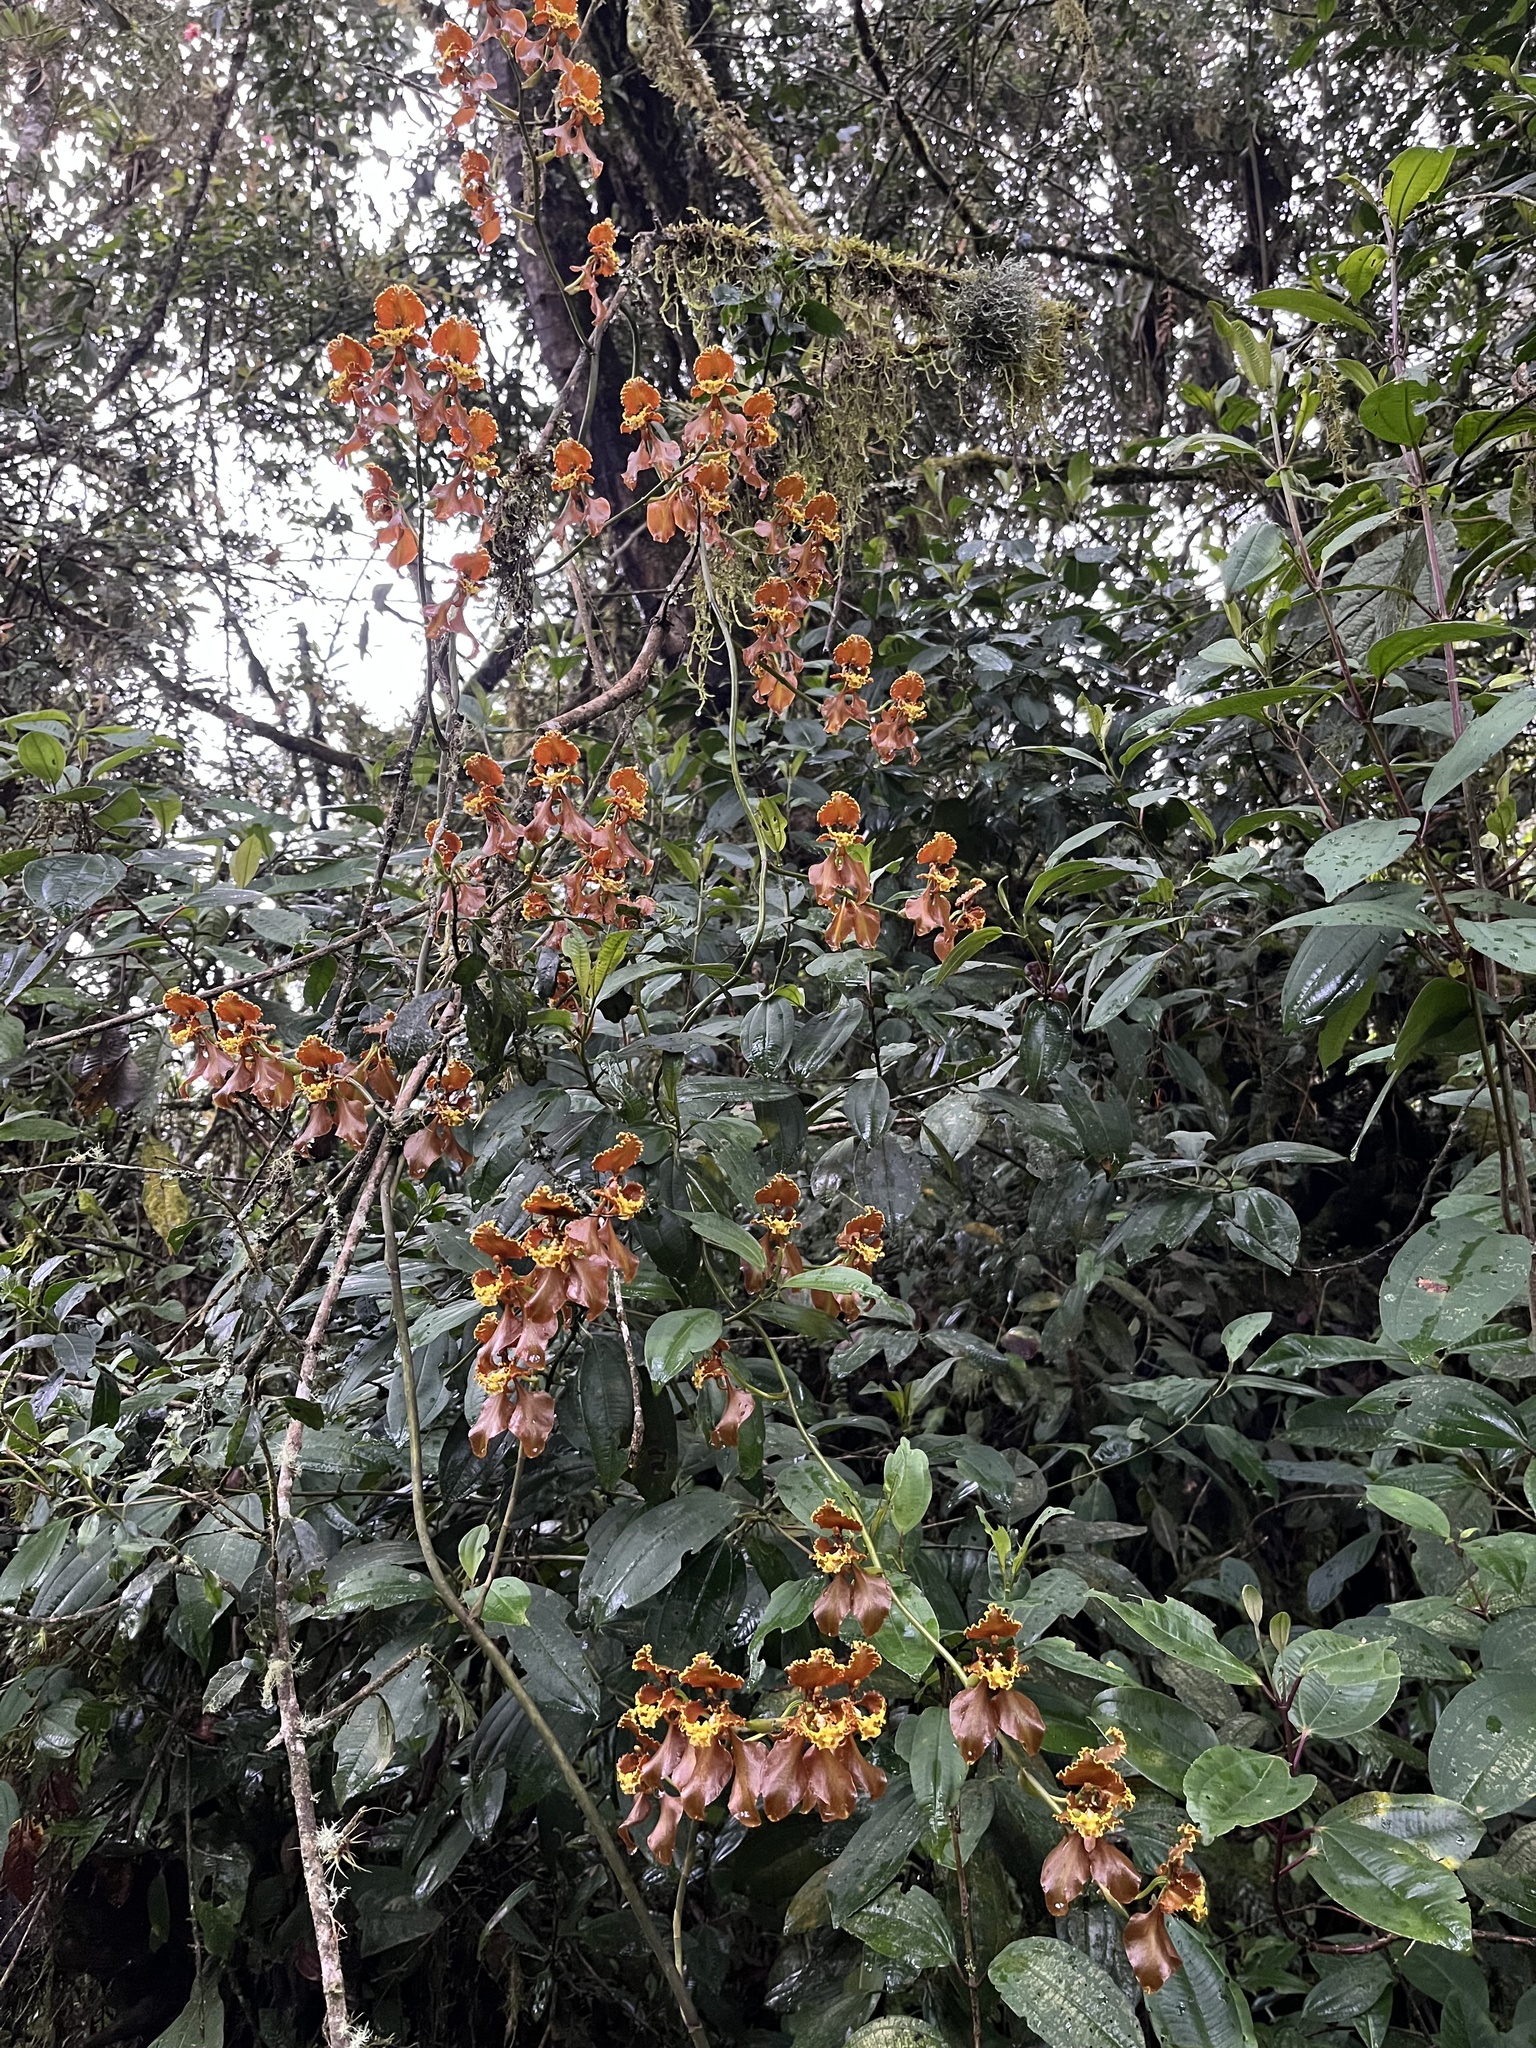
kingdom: Plantae
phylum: Tracheophyta
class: Liliopsida
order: Asparagales
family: Orchidaceae
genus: Cyrtochilum
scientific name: Cyrtochilum baldeviamae
